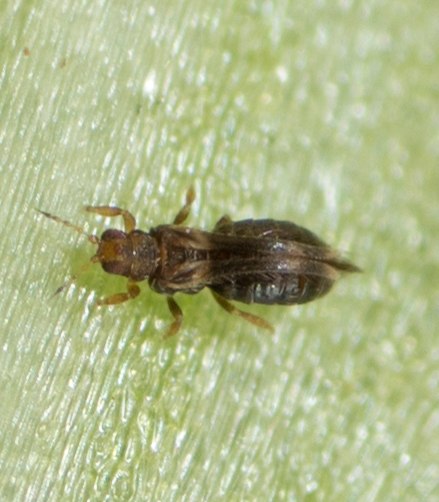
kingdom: Animalia
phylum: Arthropoda
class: Insecta
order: Thysanoptera
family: Thripidae
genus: Hercinothrips
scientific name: Hercinothrips femoralis
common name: Banded greenhouse thrips
